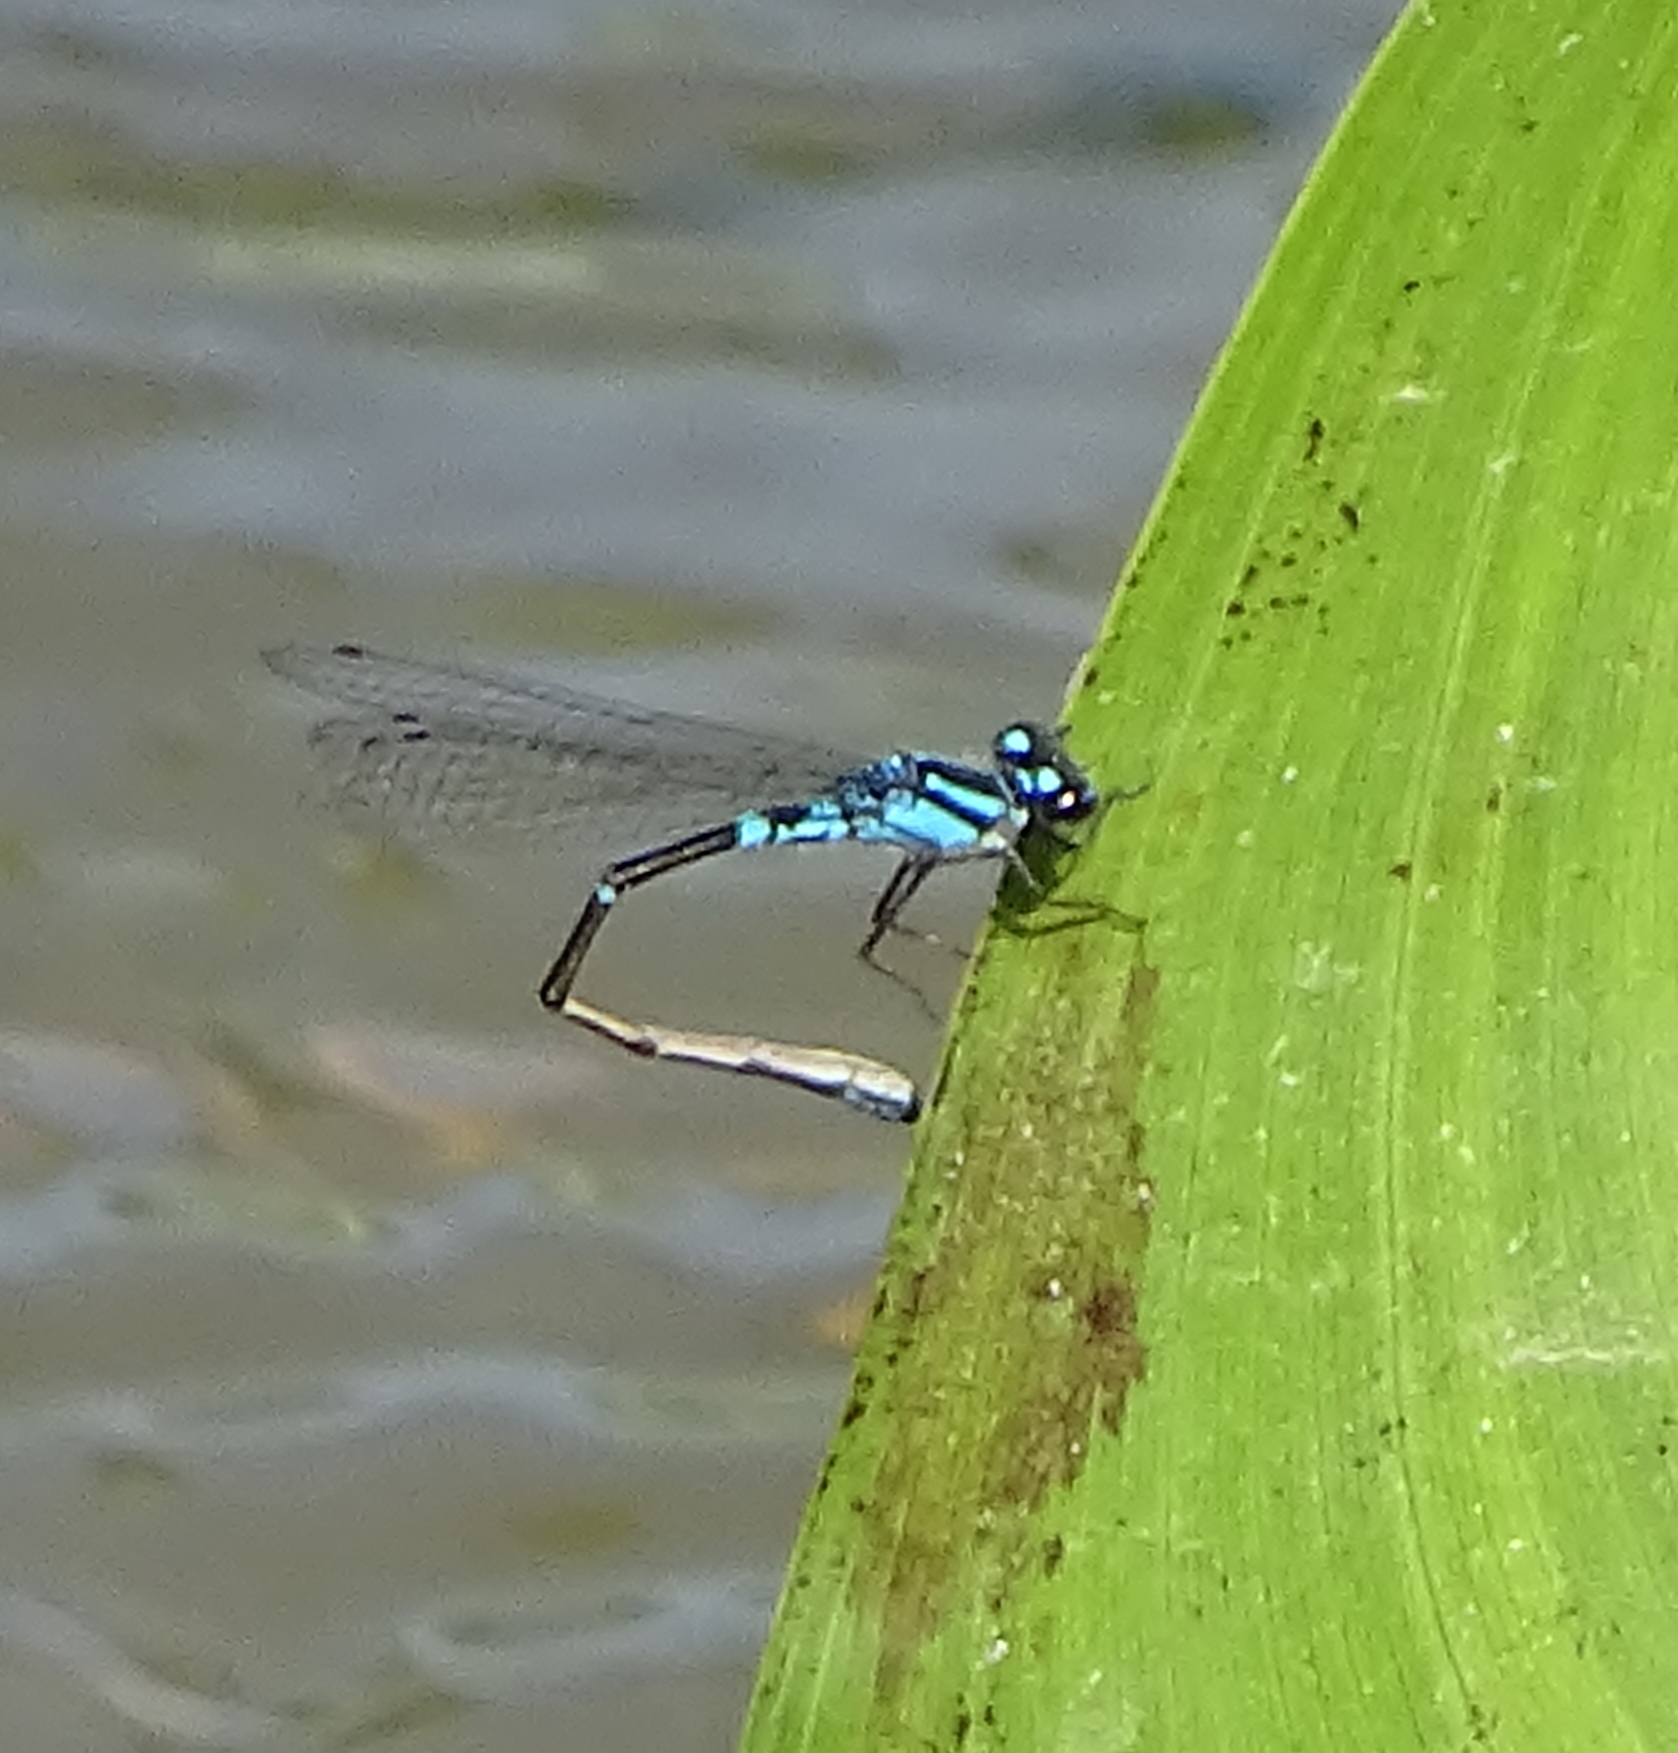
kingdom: Animalia
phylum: Arthropoda
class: Insecta
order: Odonata
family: Coenagrionidae
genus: Enallagma
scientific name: Enallagma geminatum
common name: Skimming bluet
